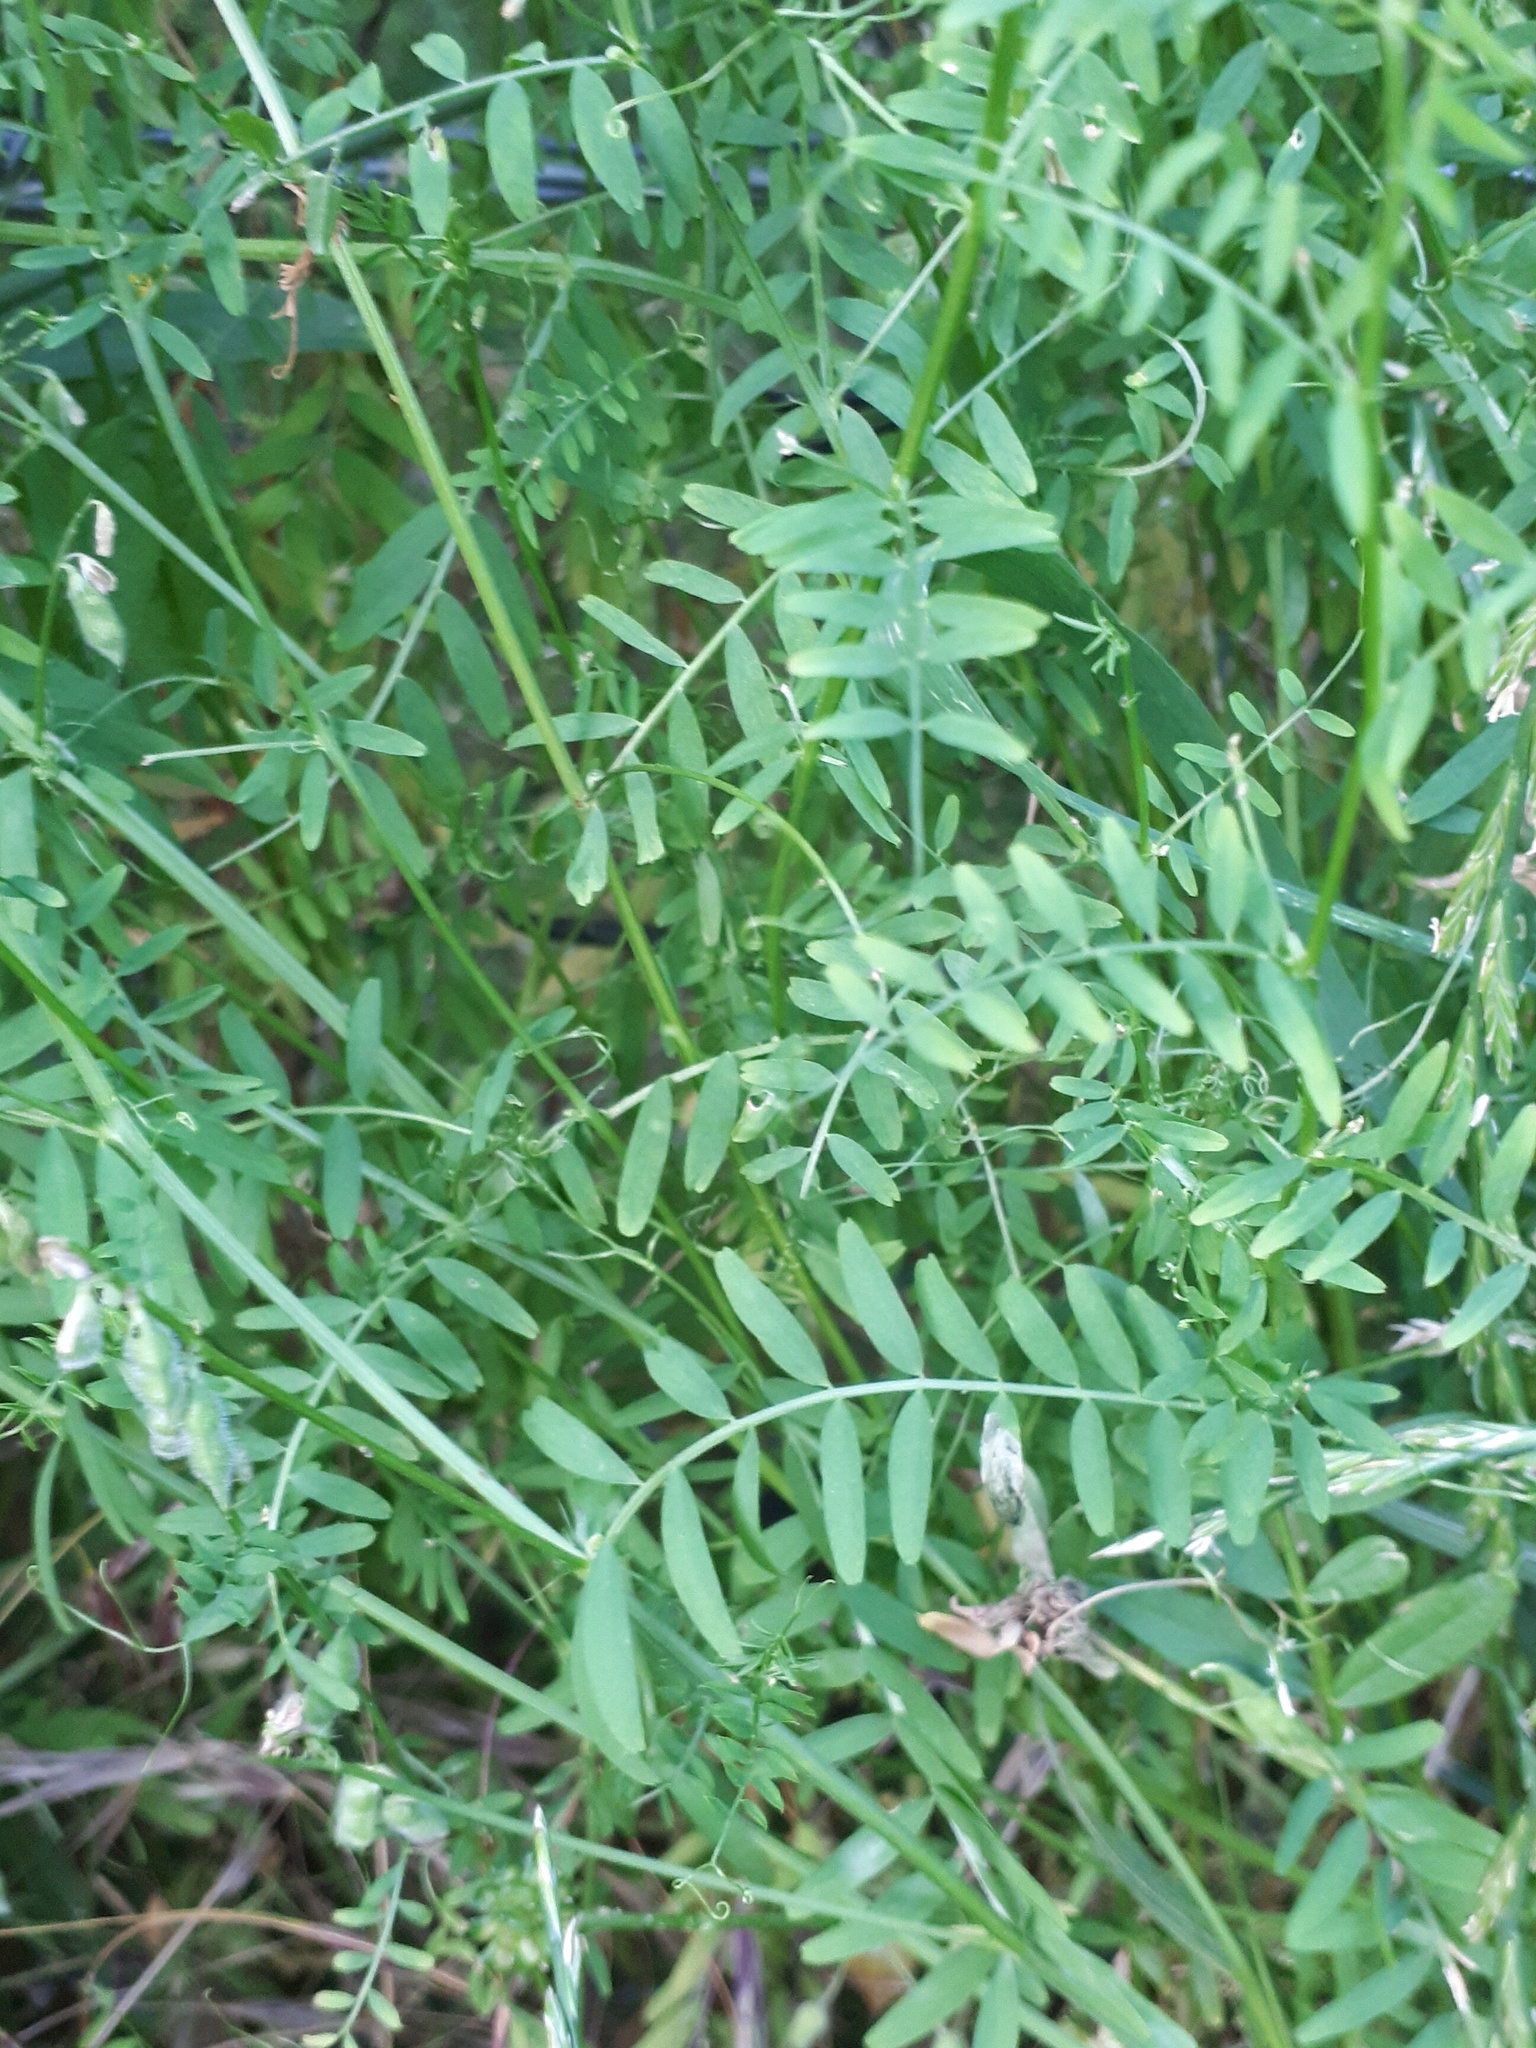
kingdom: Plantae
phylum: Tracheophyta
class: Magnoliopsida
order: Fabales
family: Fabaceae
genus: Vicia
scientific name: Vicia hirsuta
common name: Tiny vetch
